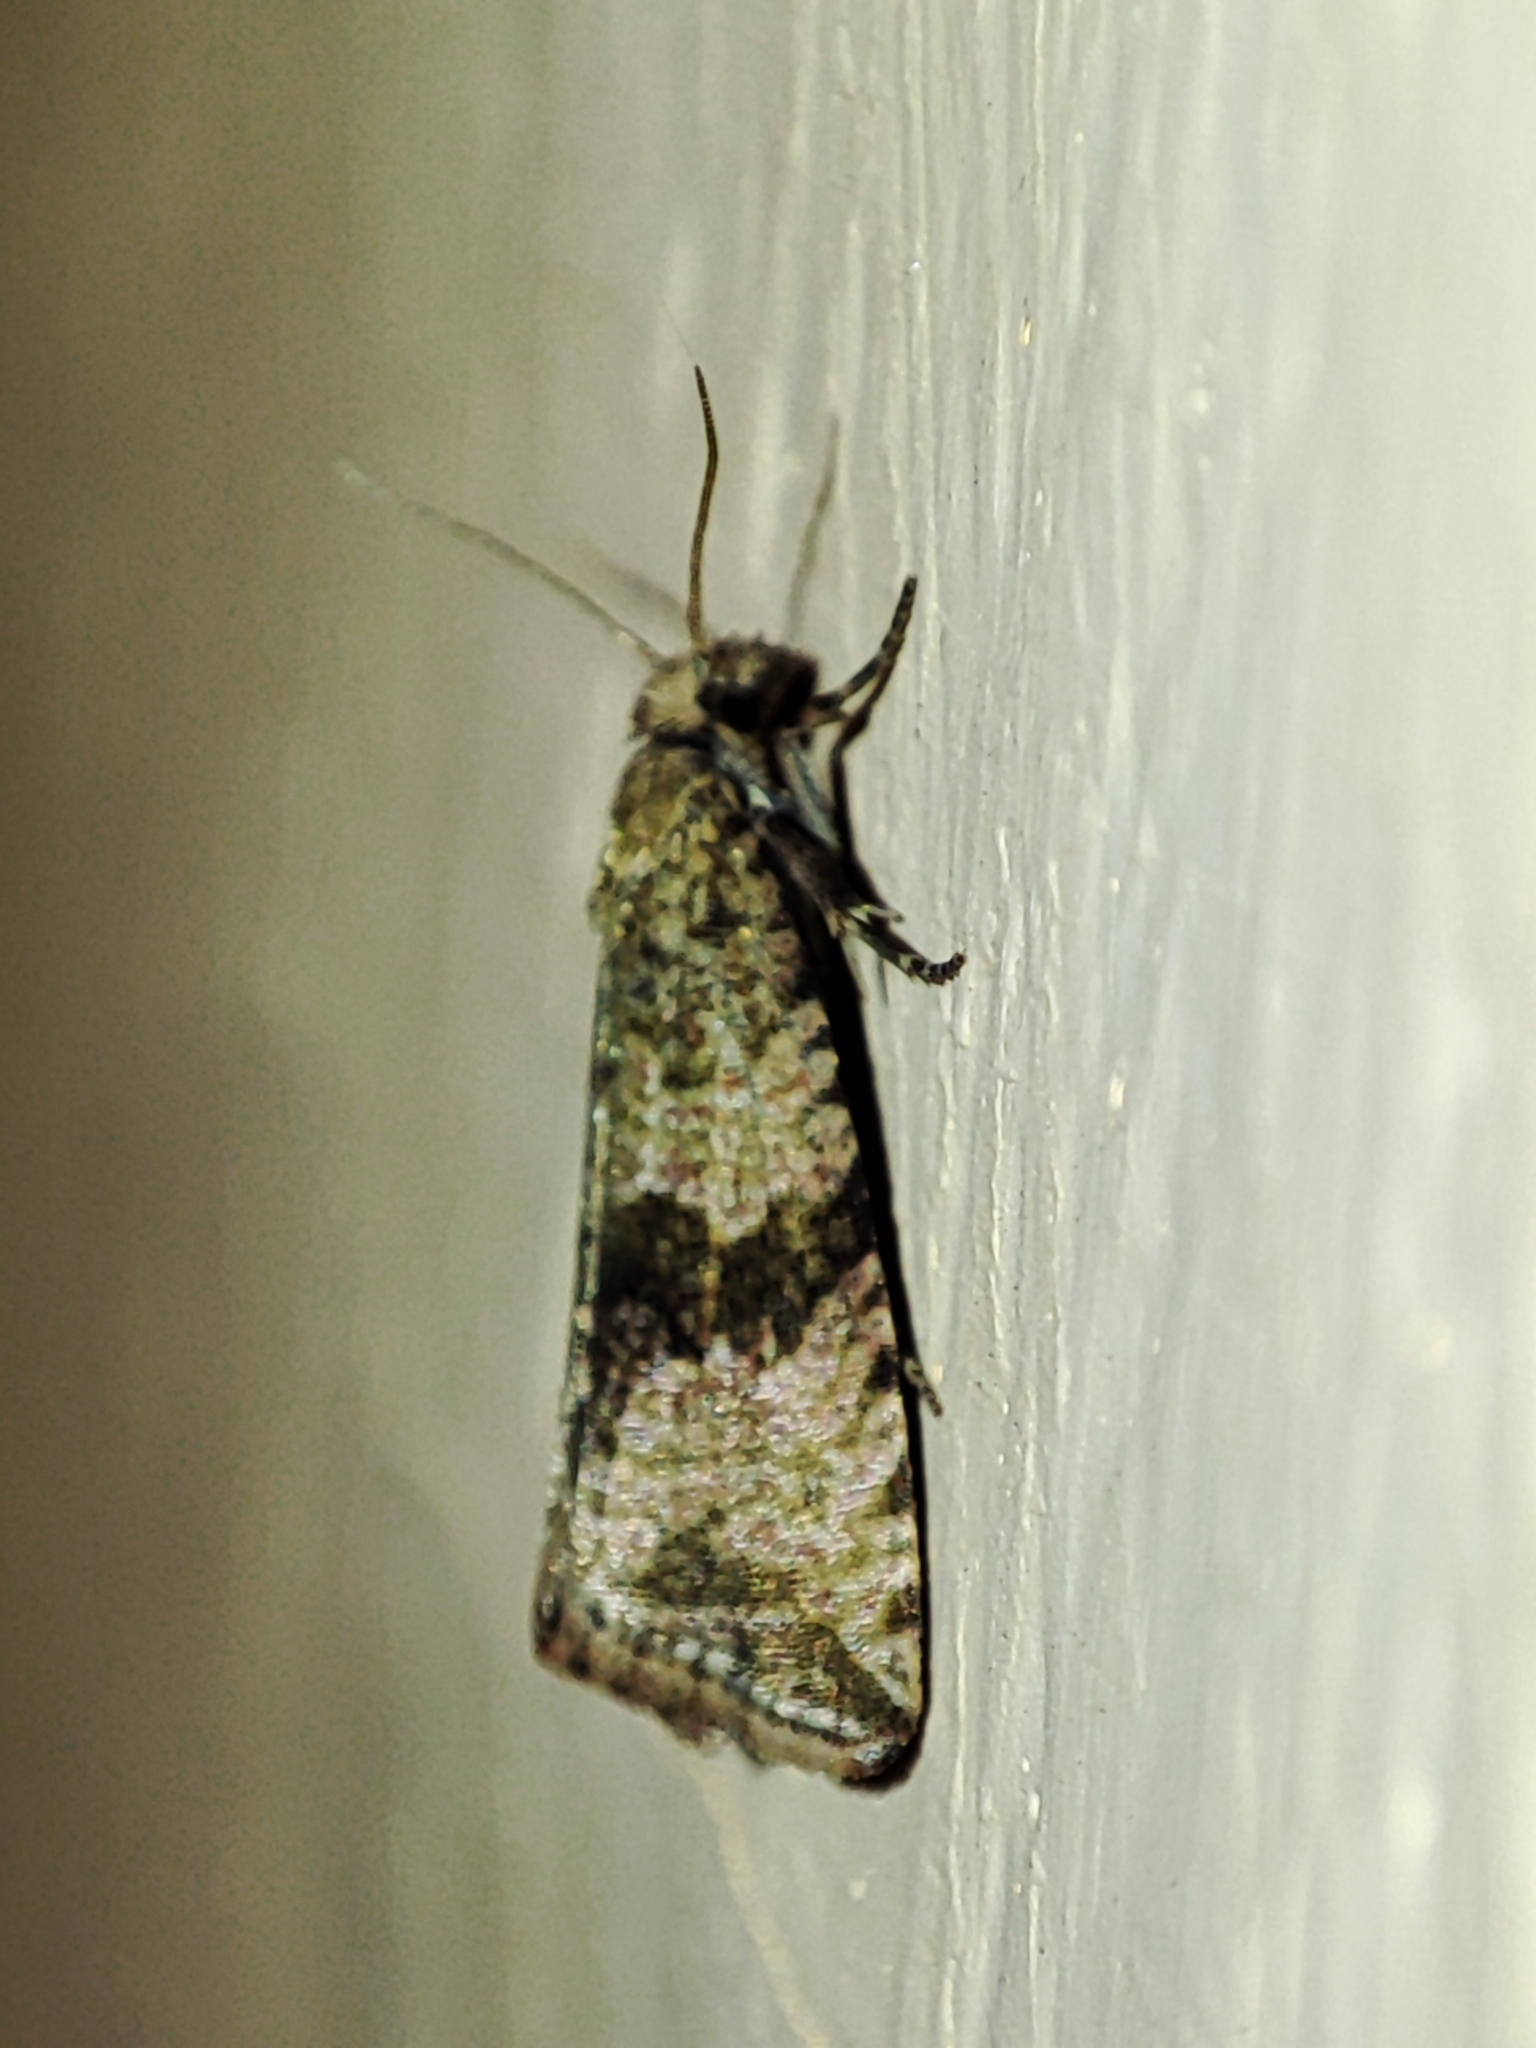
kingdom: Animalia
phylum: Arthropoda
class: Insecta
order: Lepidoptera
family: Tortricidae
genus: Celypha
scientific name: Celypha striana
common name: Barred marble
